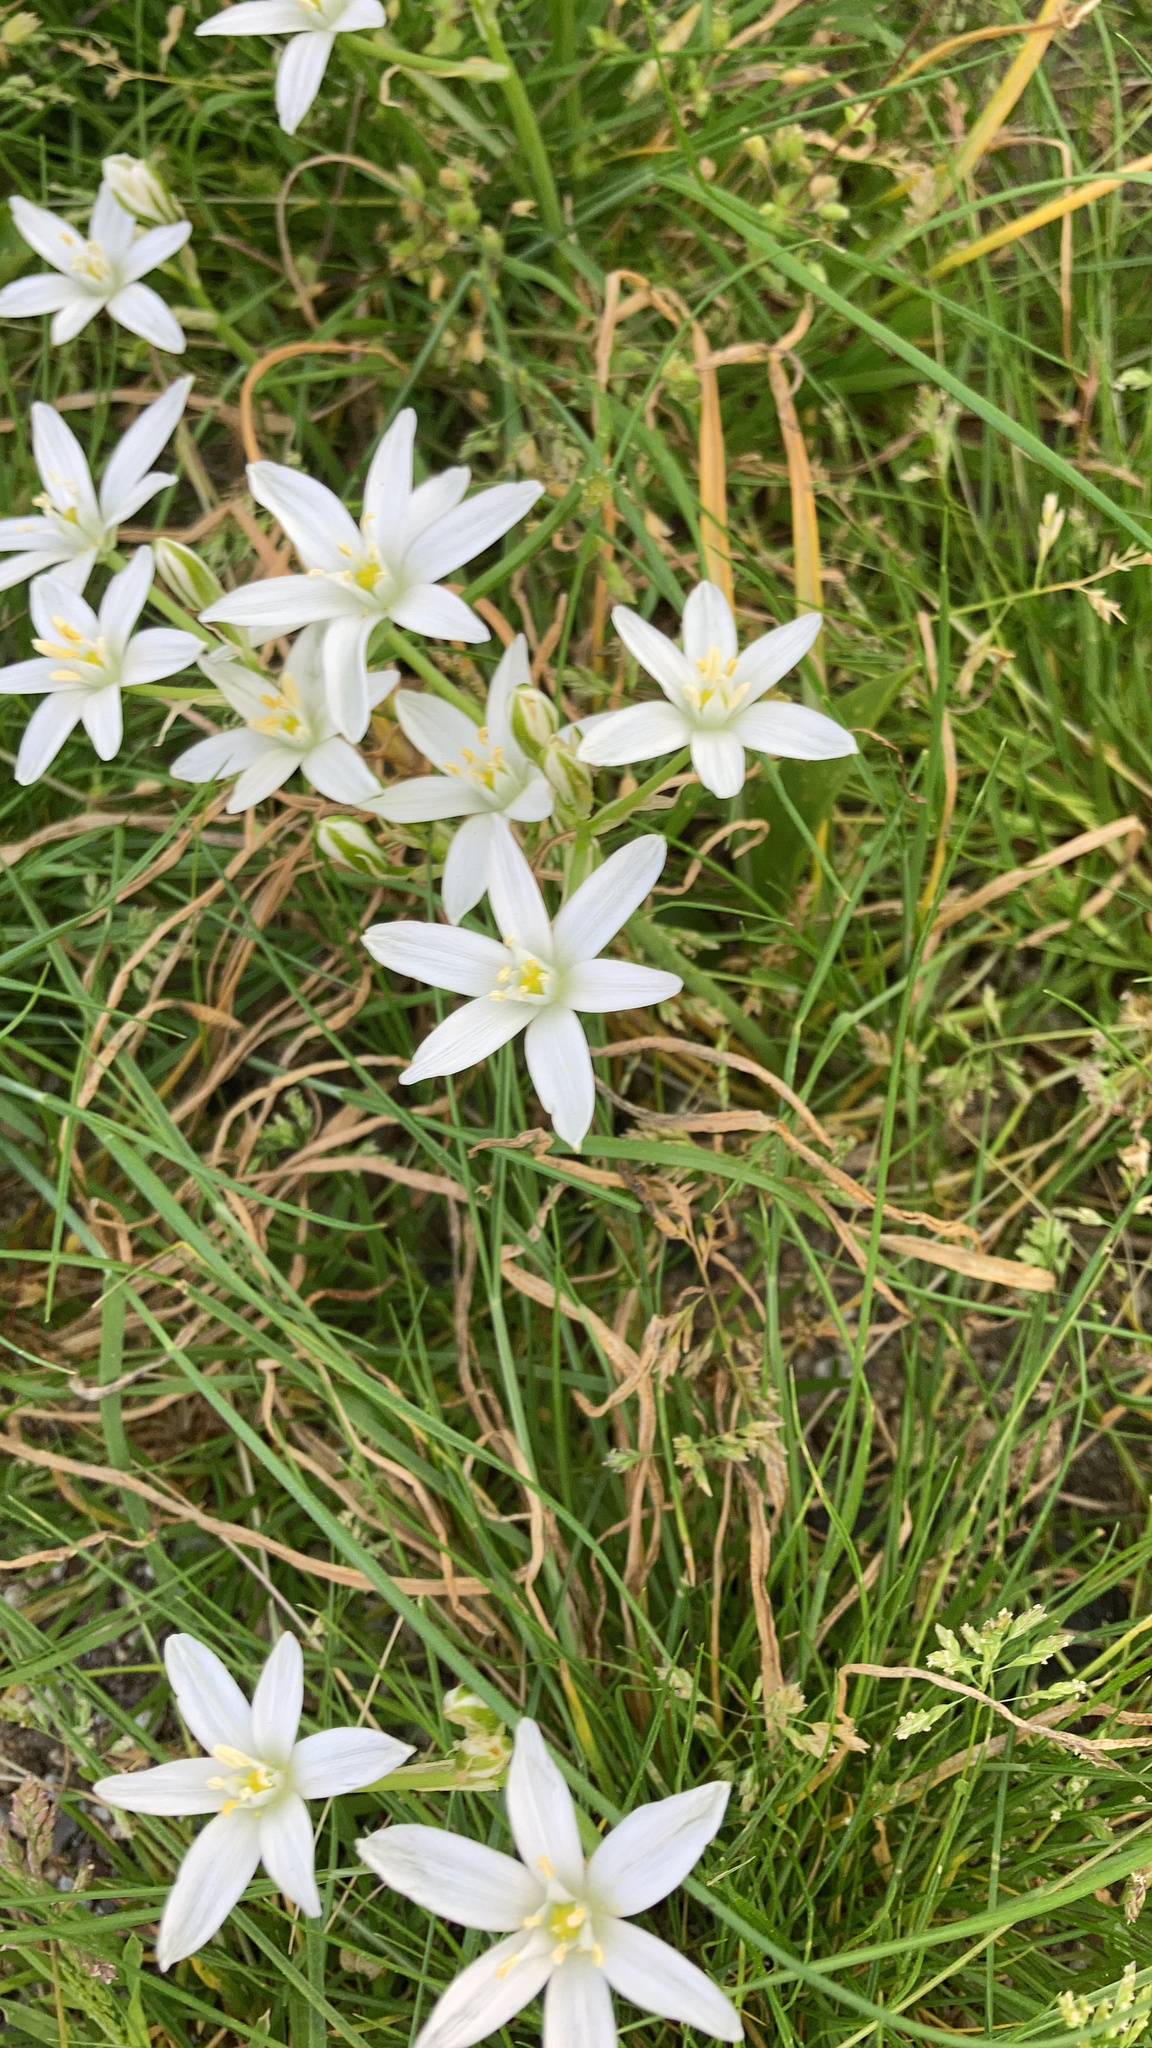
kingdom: Plantae
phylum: Tracheophyta
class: Liliopsida
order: Asparagales
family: Asparagaceae
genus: Ornithogalum
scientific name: Ornithogalum umbellatum
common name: Garden star-of-bethlehem
